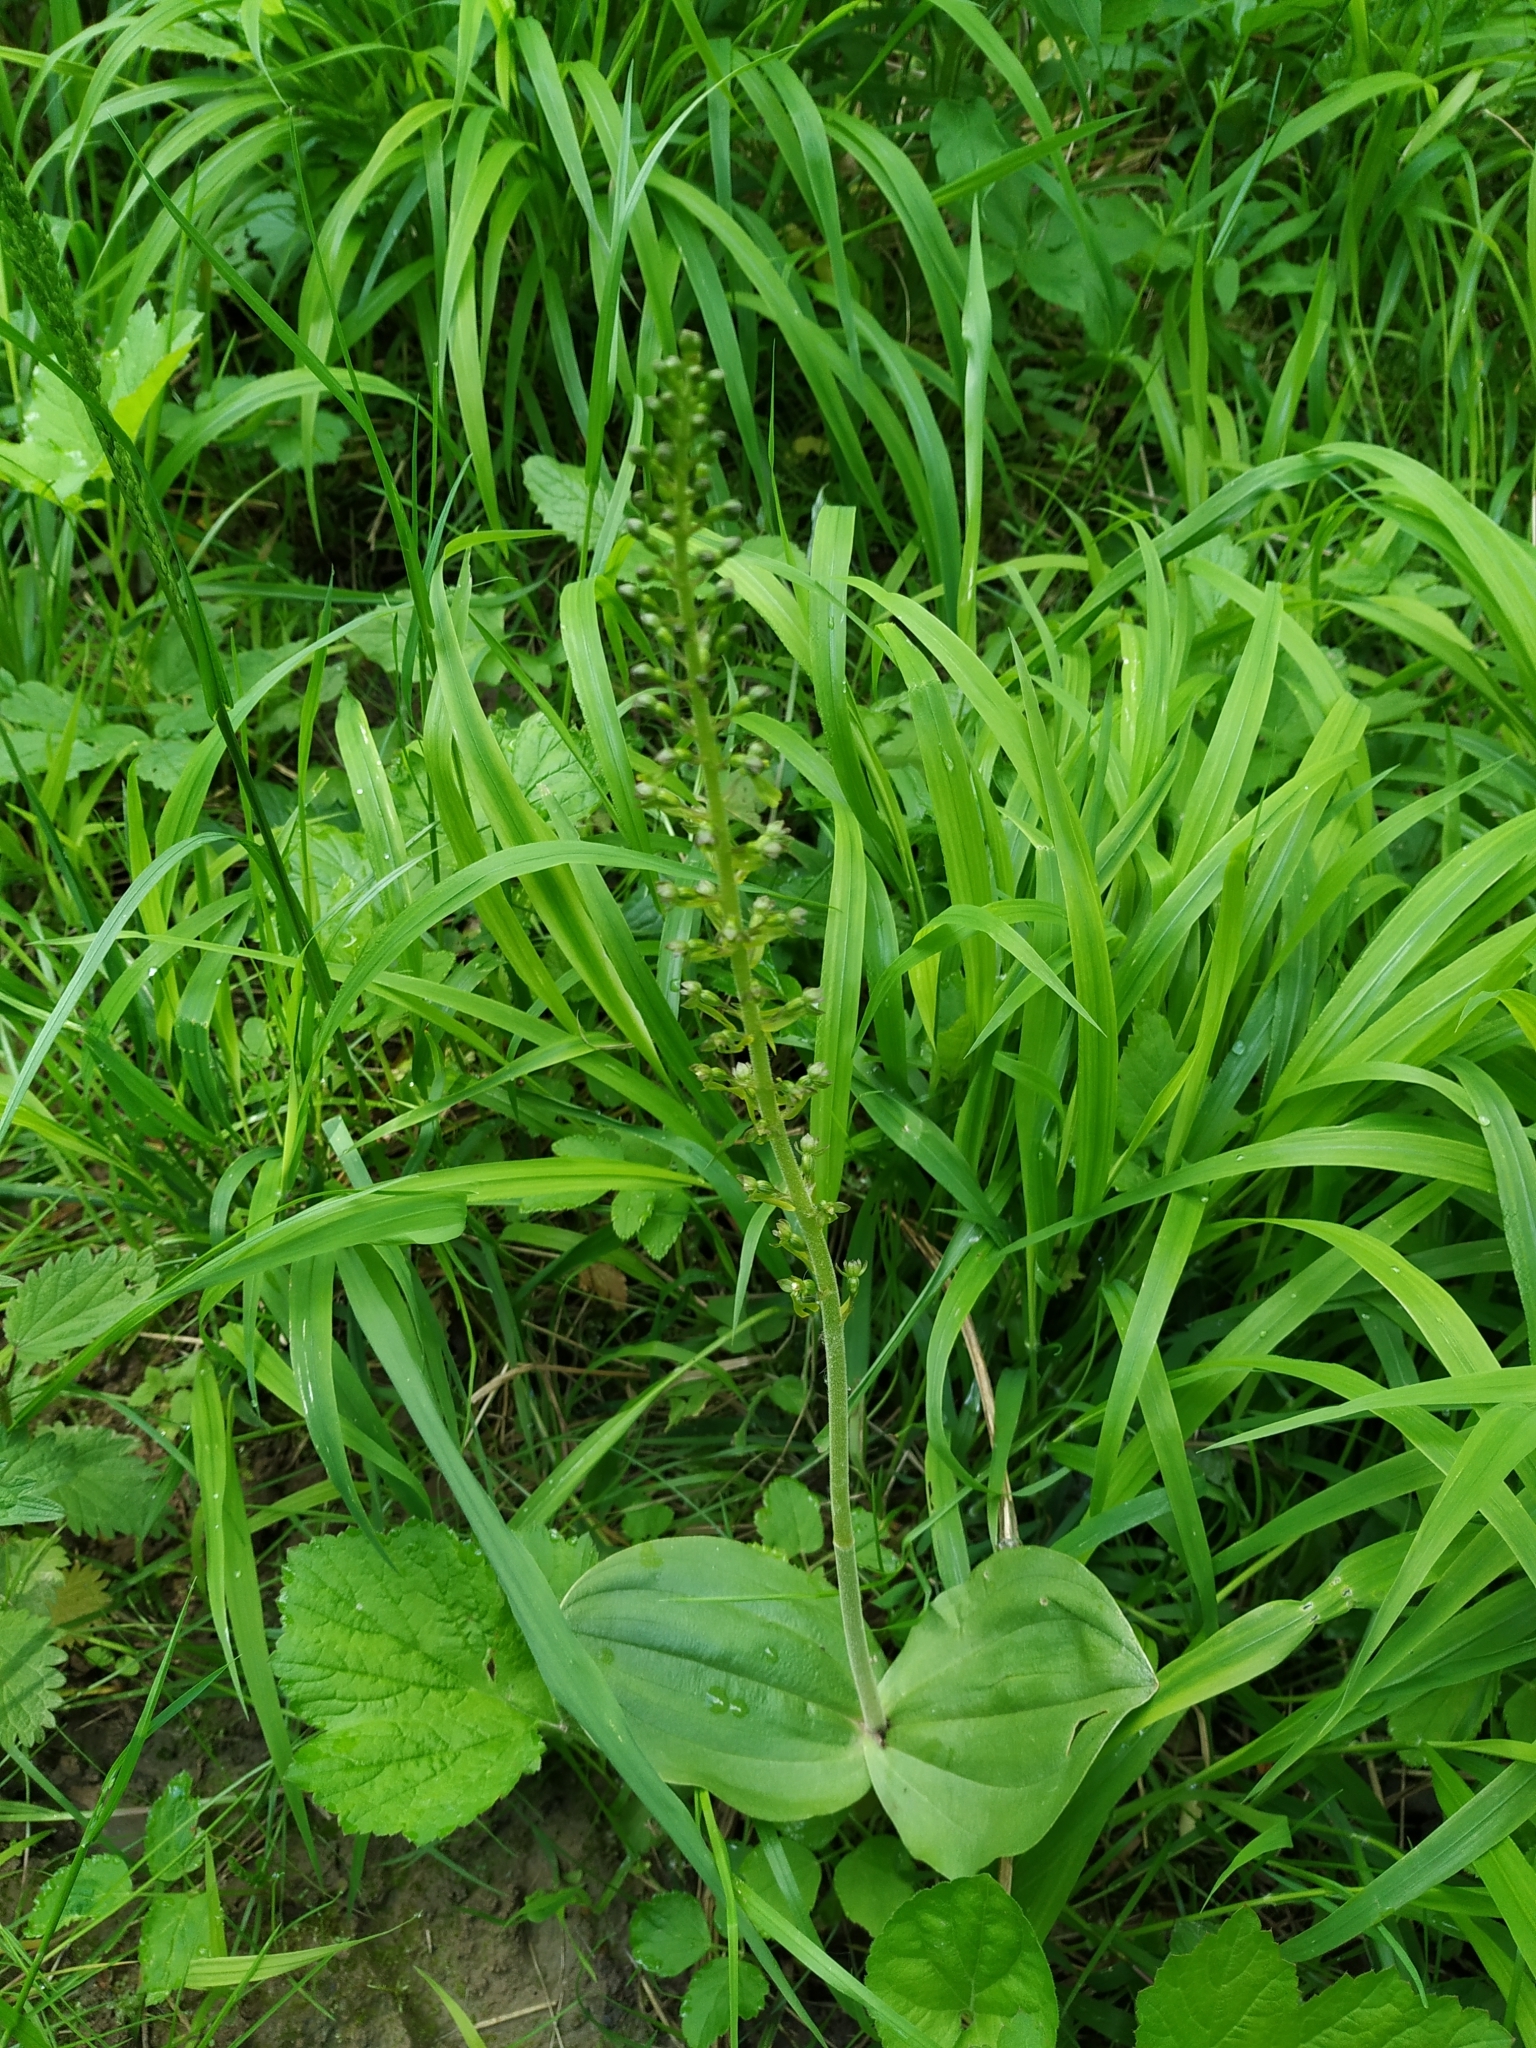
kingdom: Plantae
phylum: Tracheophyta
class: Liliopsida
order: Asparagales
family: Orchidaceae
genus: Neottia
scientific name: Neottia ovata
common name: Common twayblade
